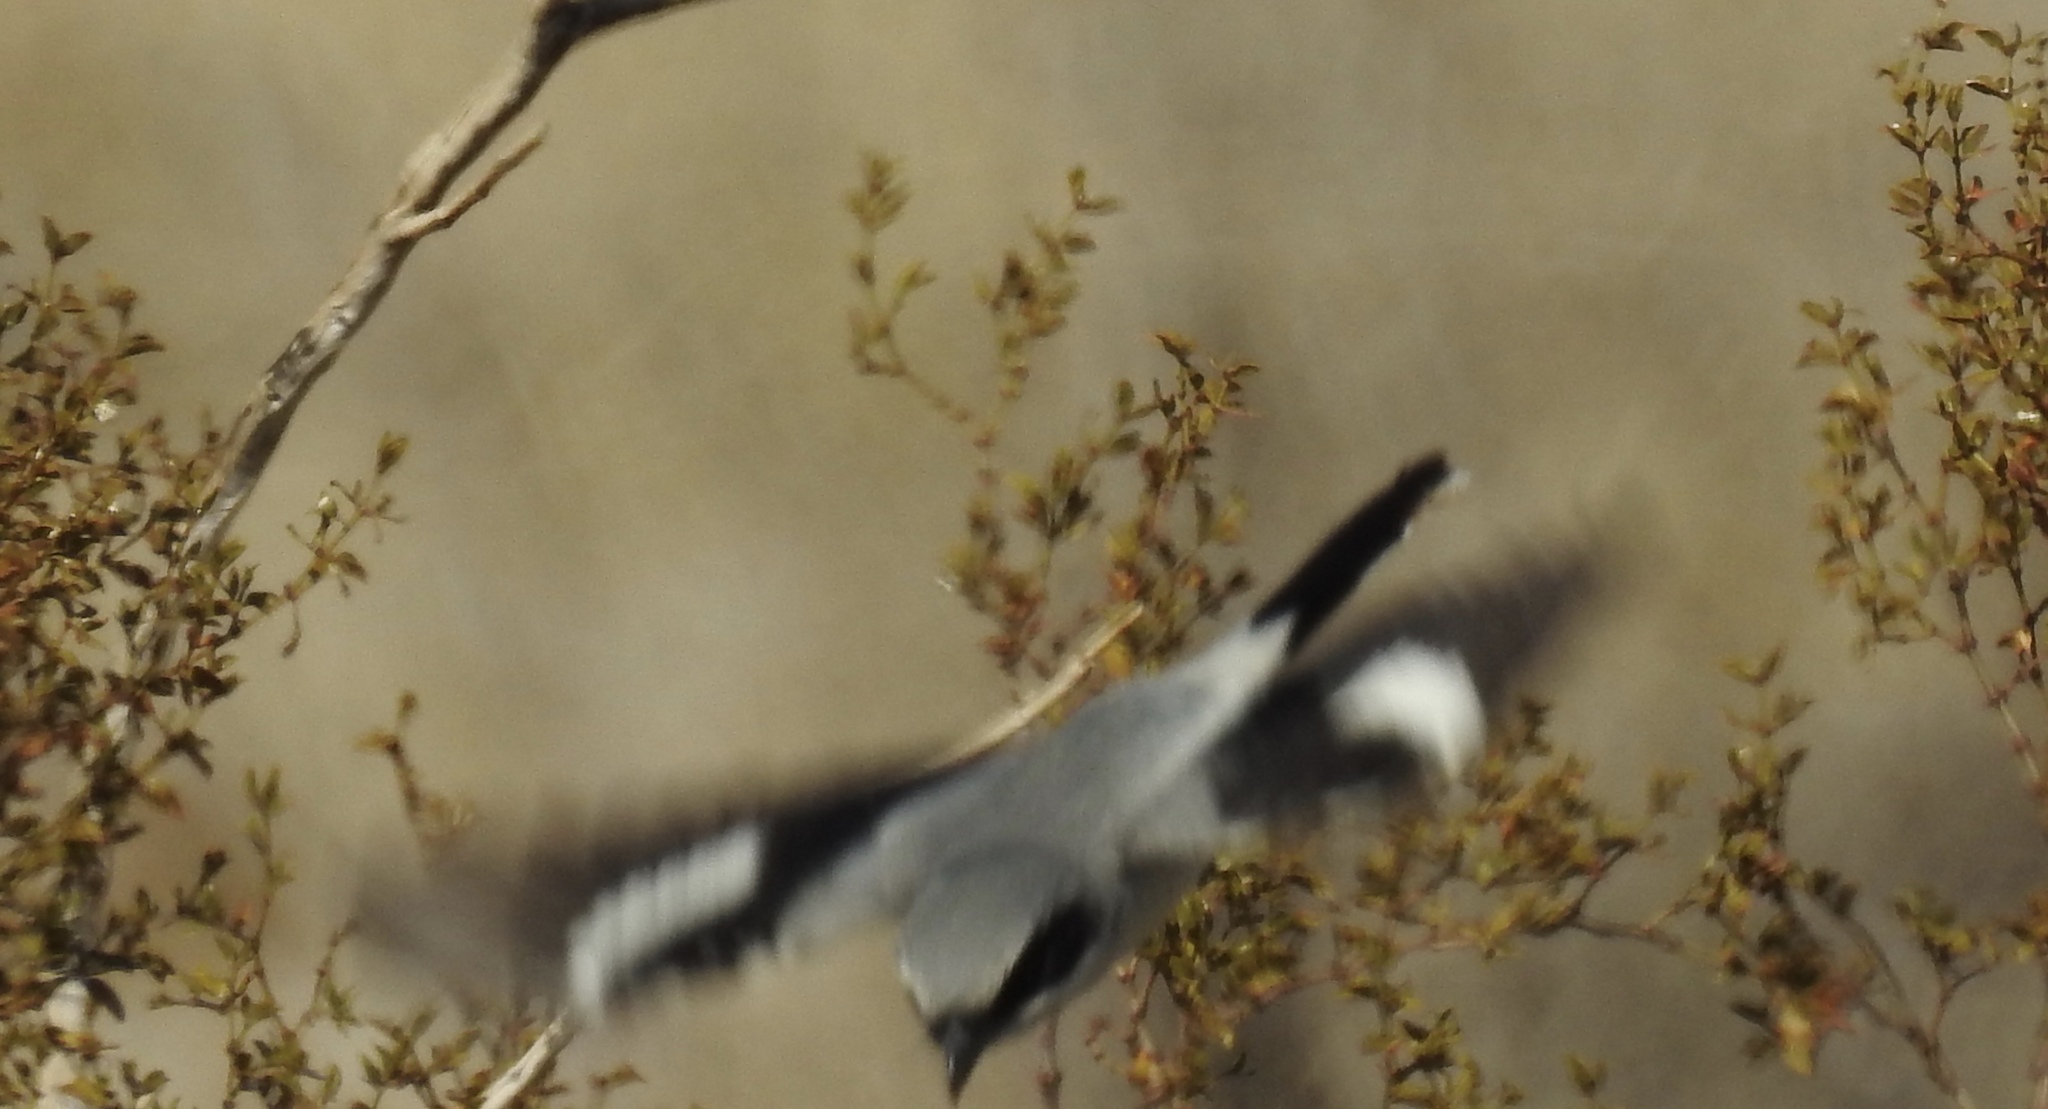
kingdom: Animalia
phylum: Chordata
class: Aves
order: Passeriformes
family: Laniidae
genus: Lanius
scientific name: Lanius ludovicianus
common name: Loggerhead shrike
